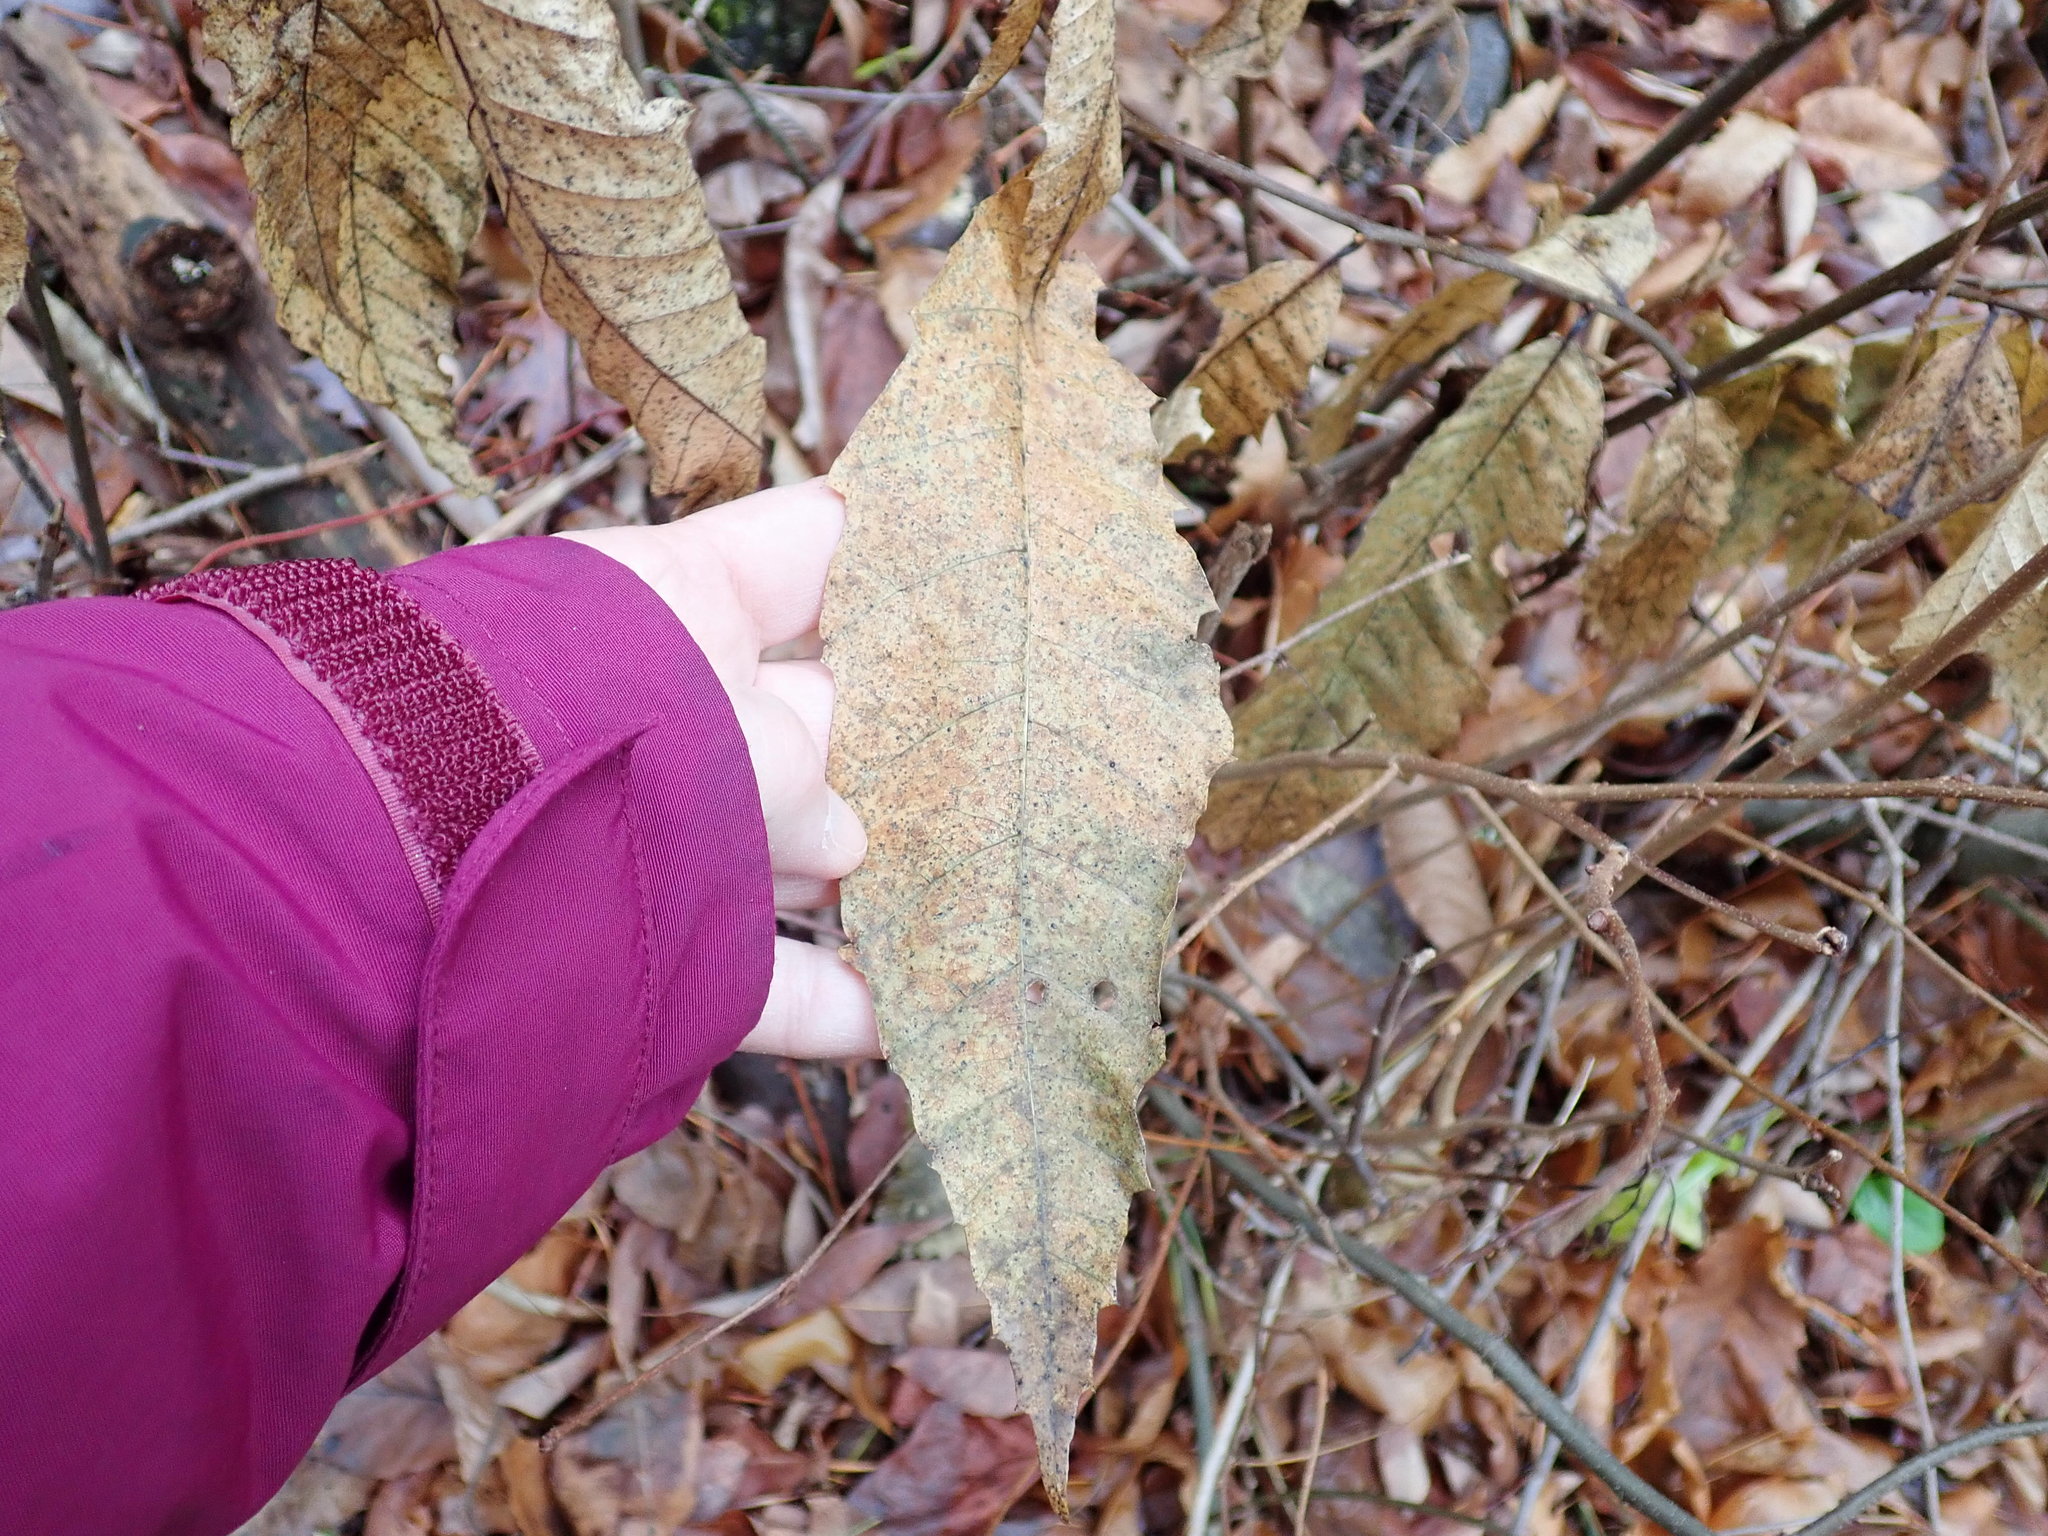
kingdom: Plantae
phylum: Tracheophyta
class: Magnoliopsida
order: Fagales
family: Fagaceae
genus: Castanea
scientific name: Castanea dentata
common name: American chestnut
